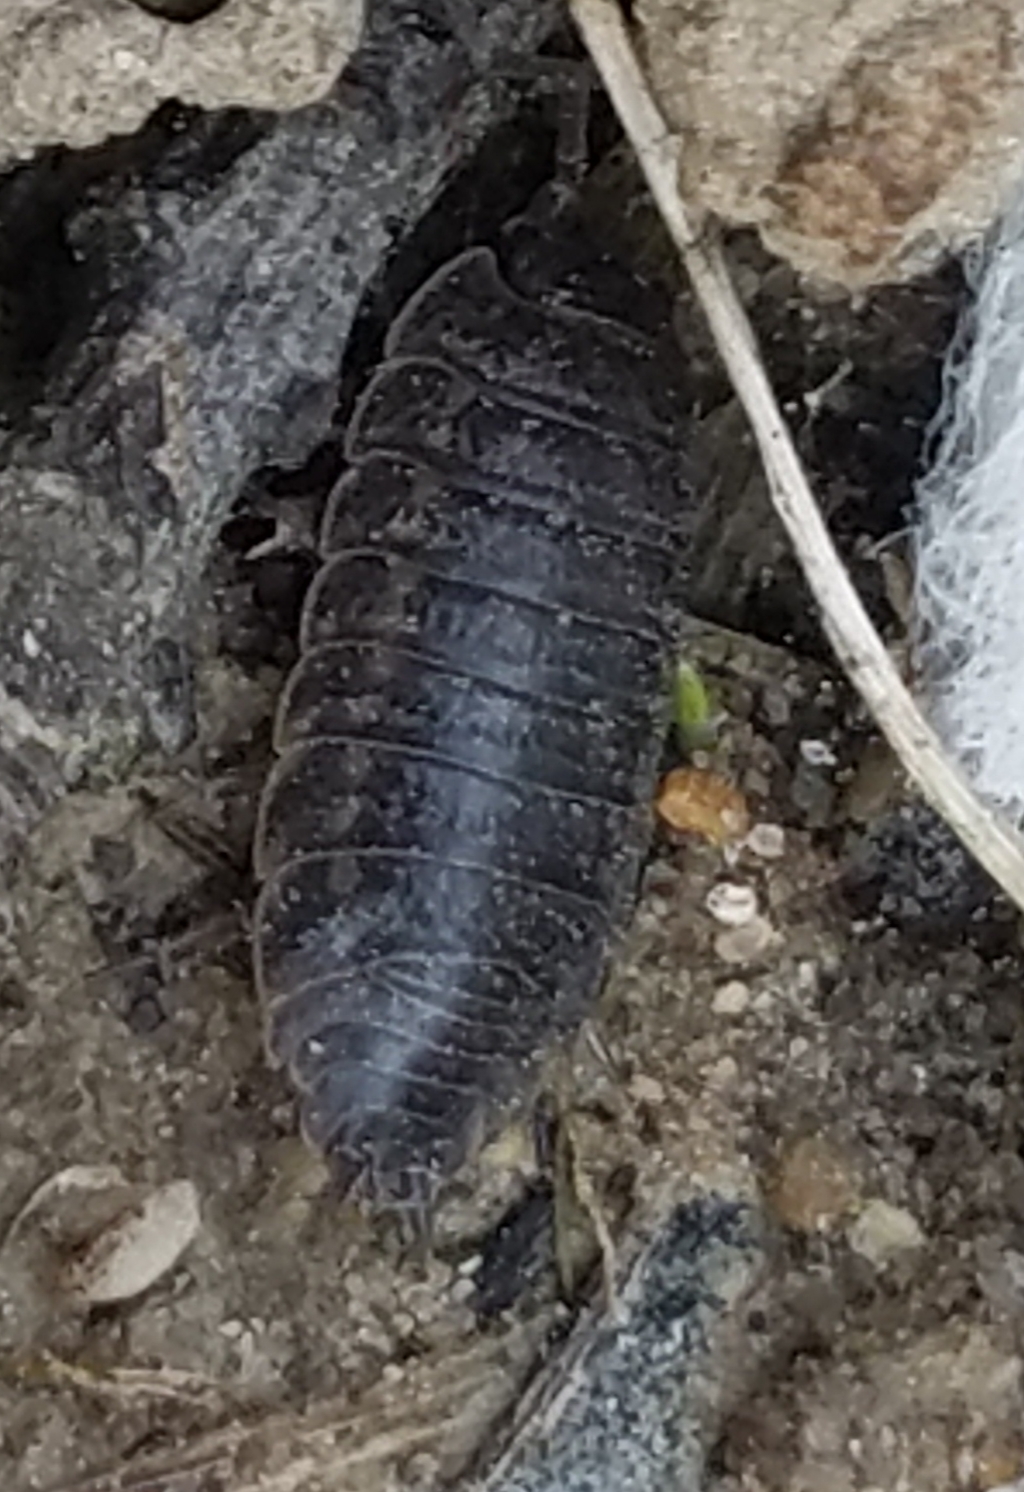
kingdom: Animalia
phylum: Arthropoda
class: Malacostraca
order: Isopoda
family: Trachelipodidae
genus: Trachelipus
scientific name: Trachelipus rathkii
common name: Isopod
